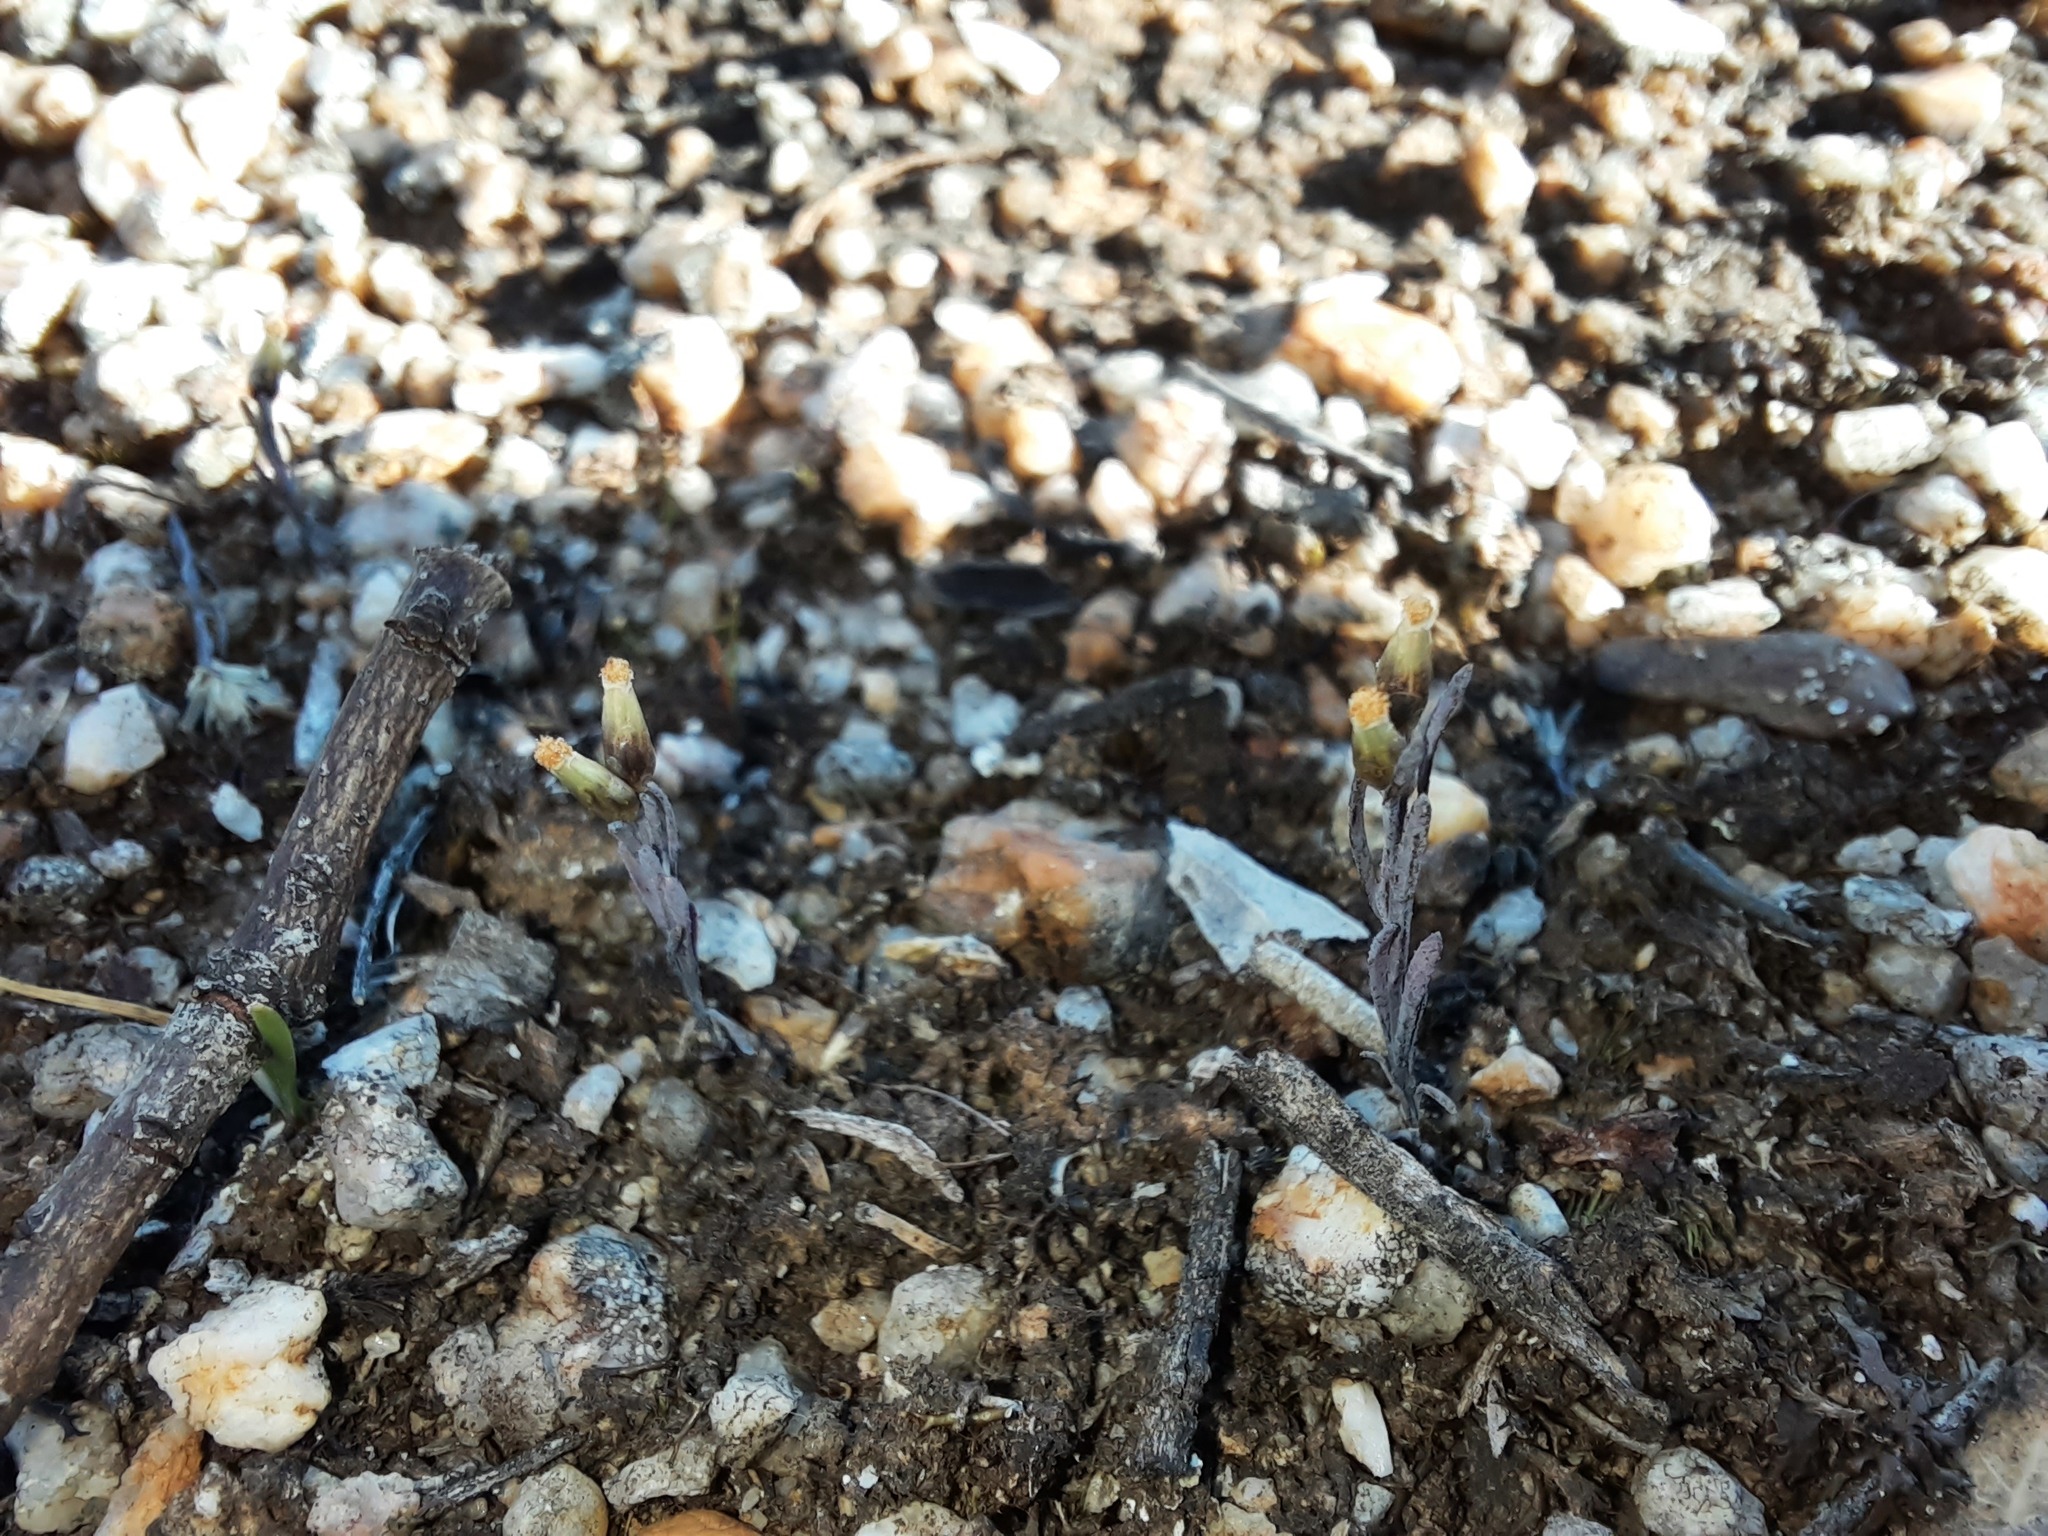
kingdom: Plantae
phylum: Tracheophyta
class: Magnoliopsida
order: Asterales
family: Asteraceae
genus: Millotia
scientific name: Millotia tenuifolia
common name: Soft millotia
